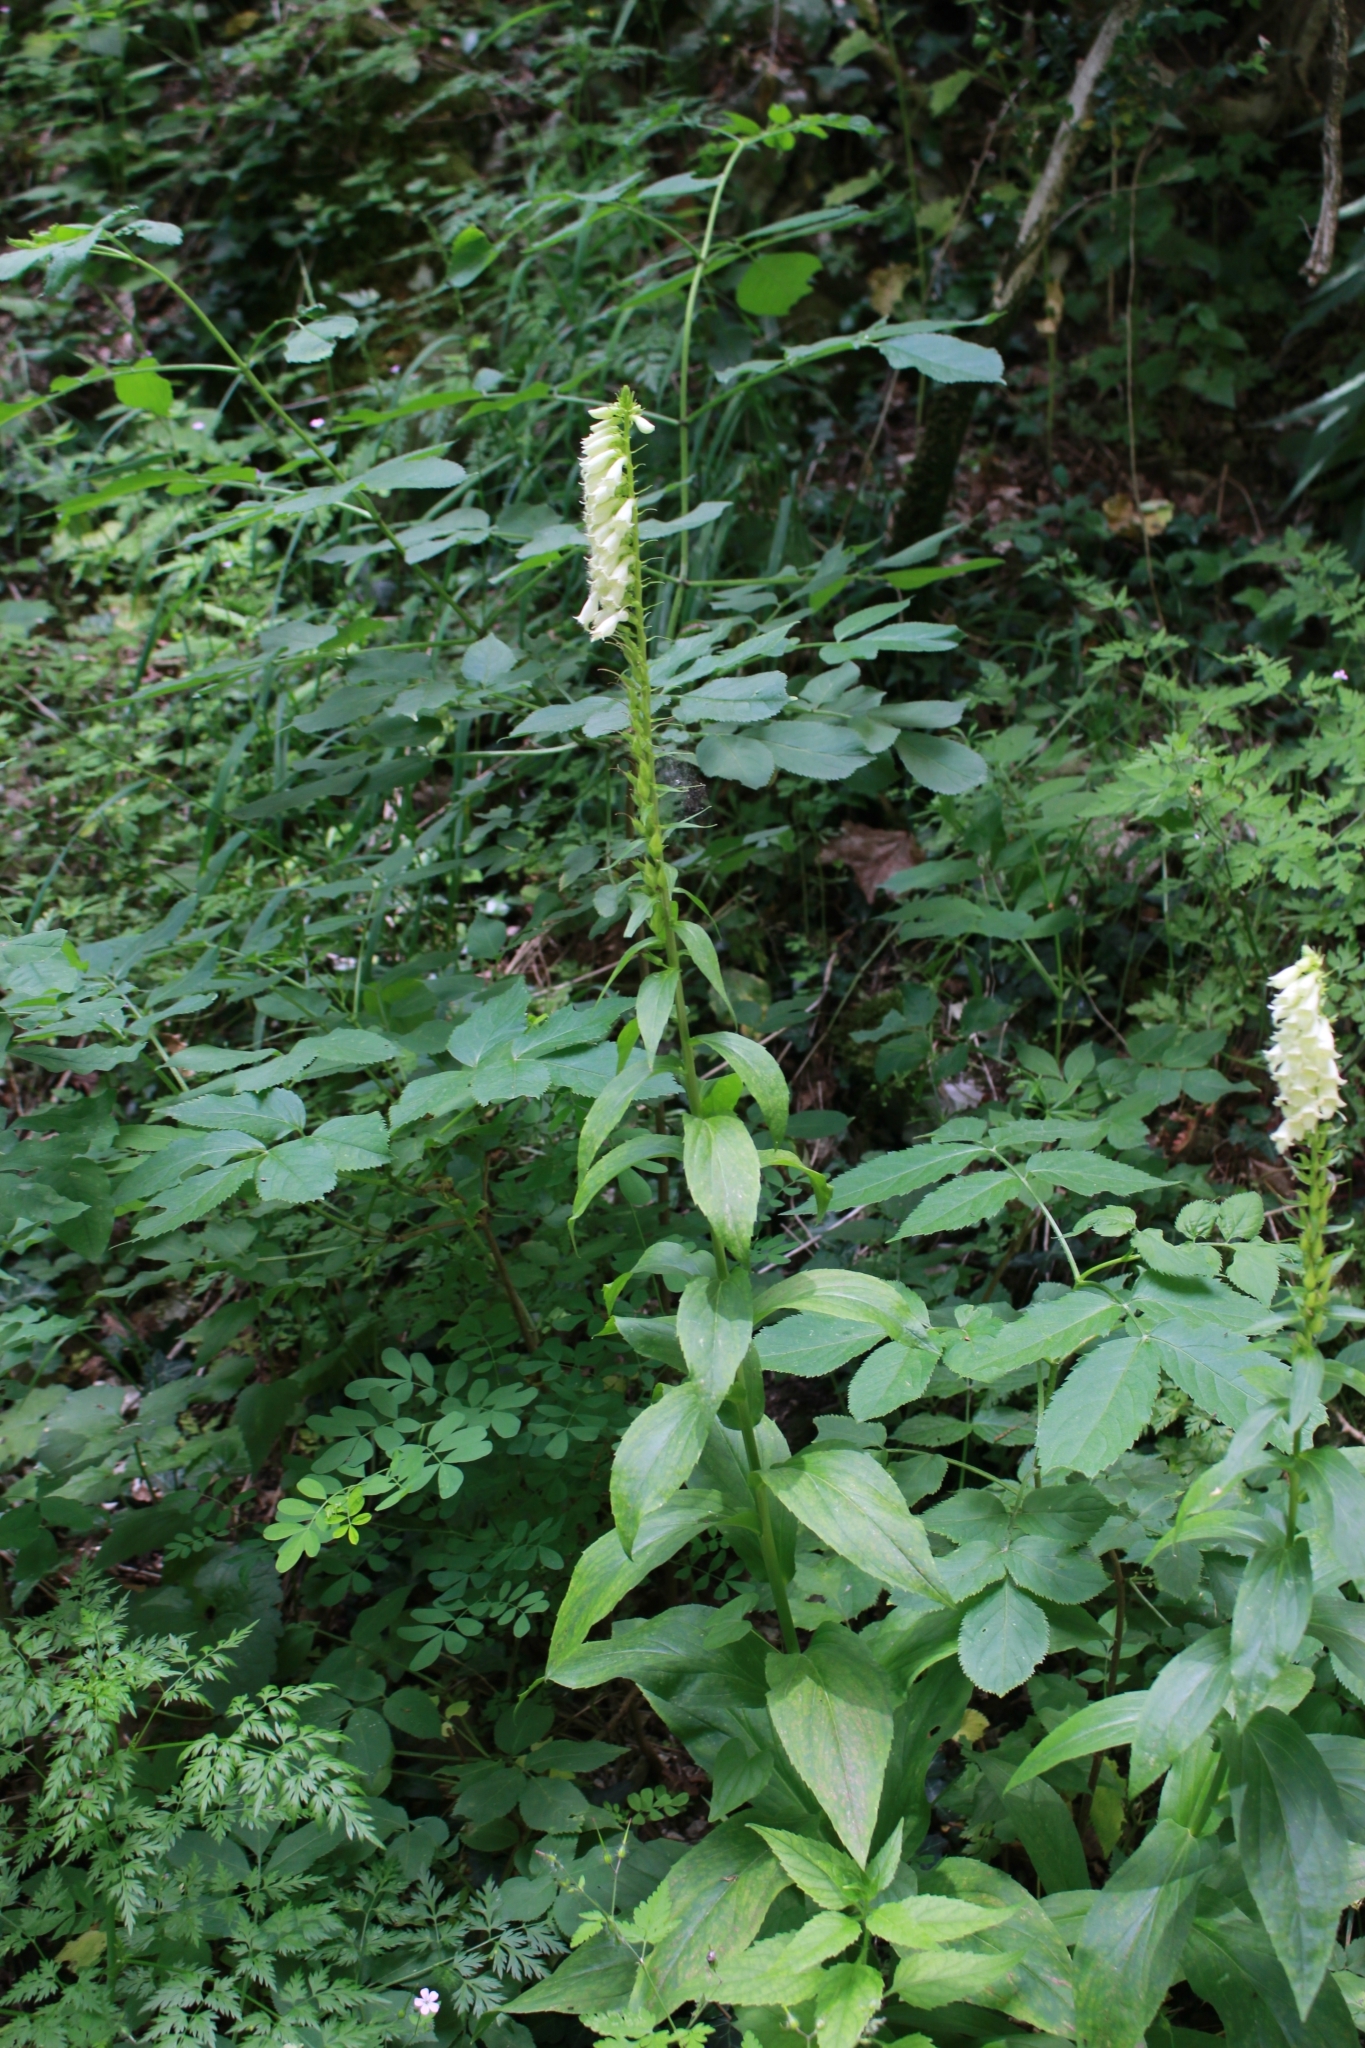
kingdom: Plantae
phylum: Tracheophyta
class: Magnoliopsida
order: Lamiales
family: Plantaginaceae
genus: Digitalis
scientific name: Digitalis lutea
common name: Straw foxglove
